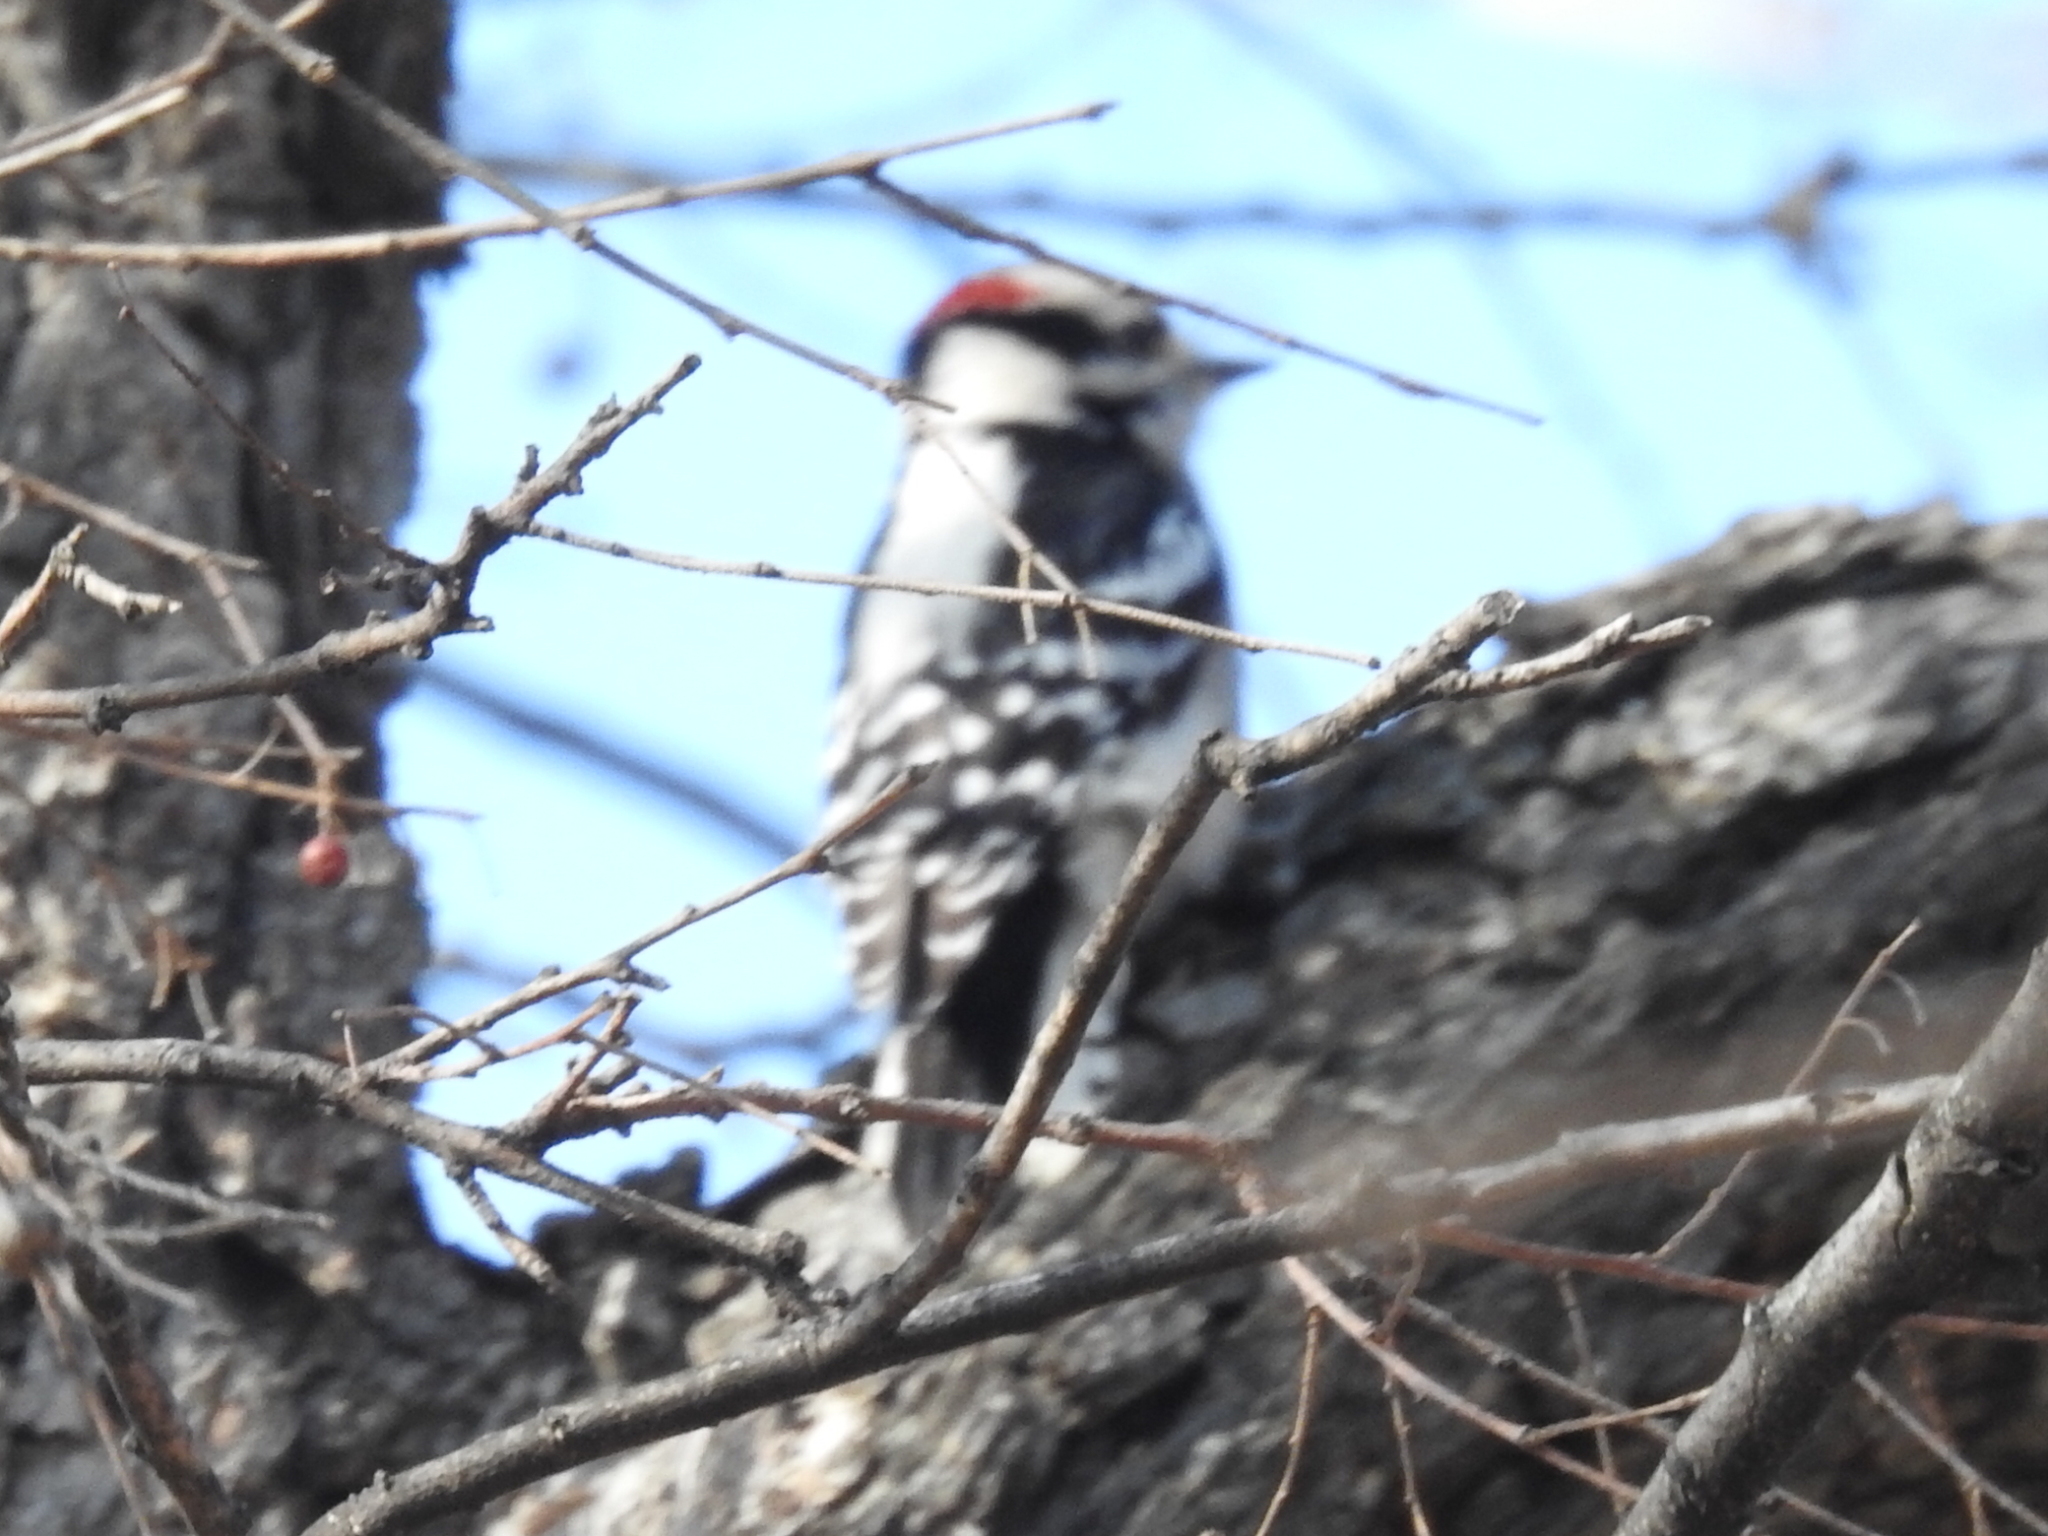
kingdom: Animalia
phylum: Chordata
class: Aves
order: Piciformes
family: Picidae
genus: Dryobates
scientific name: Dryobates pubescens
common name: Downy woodpecker
